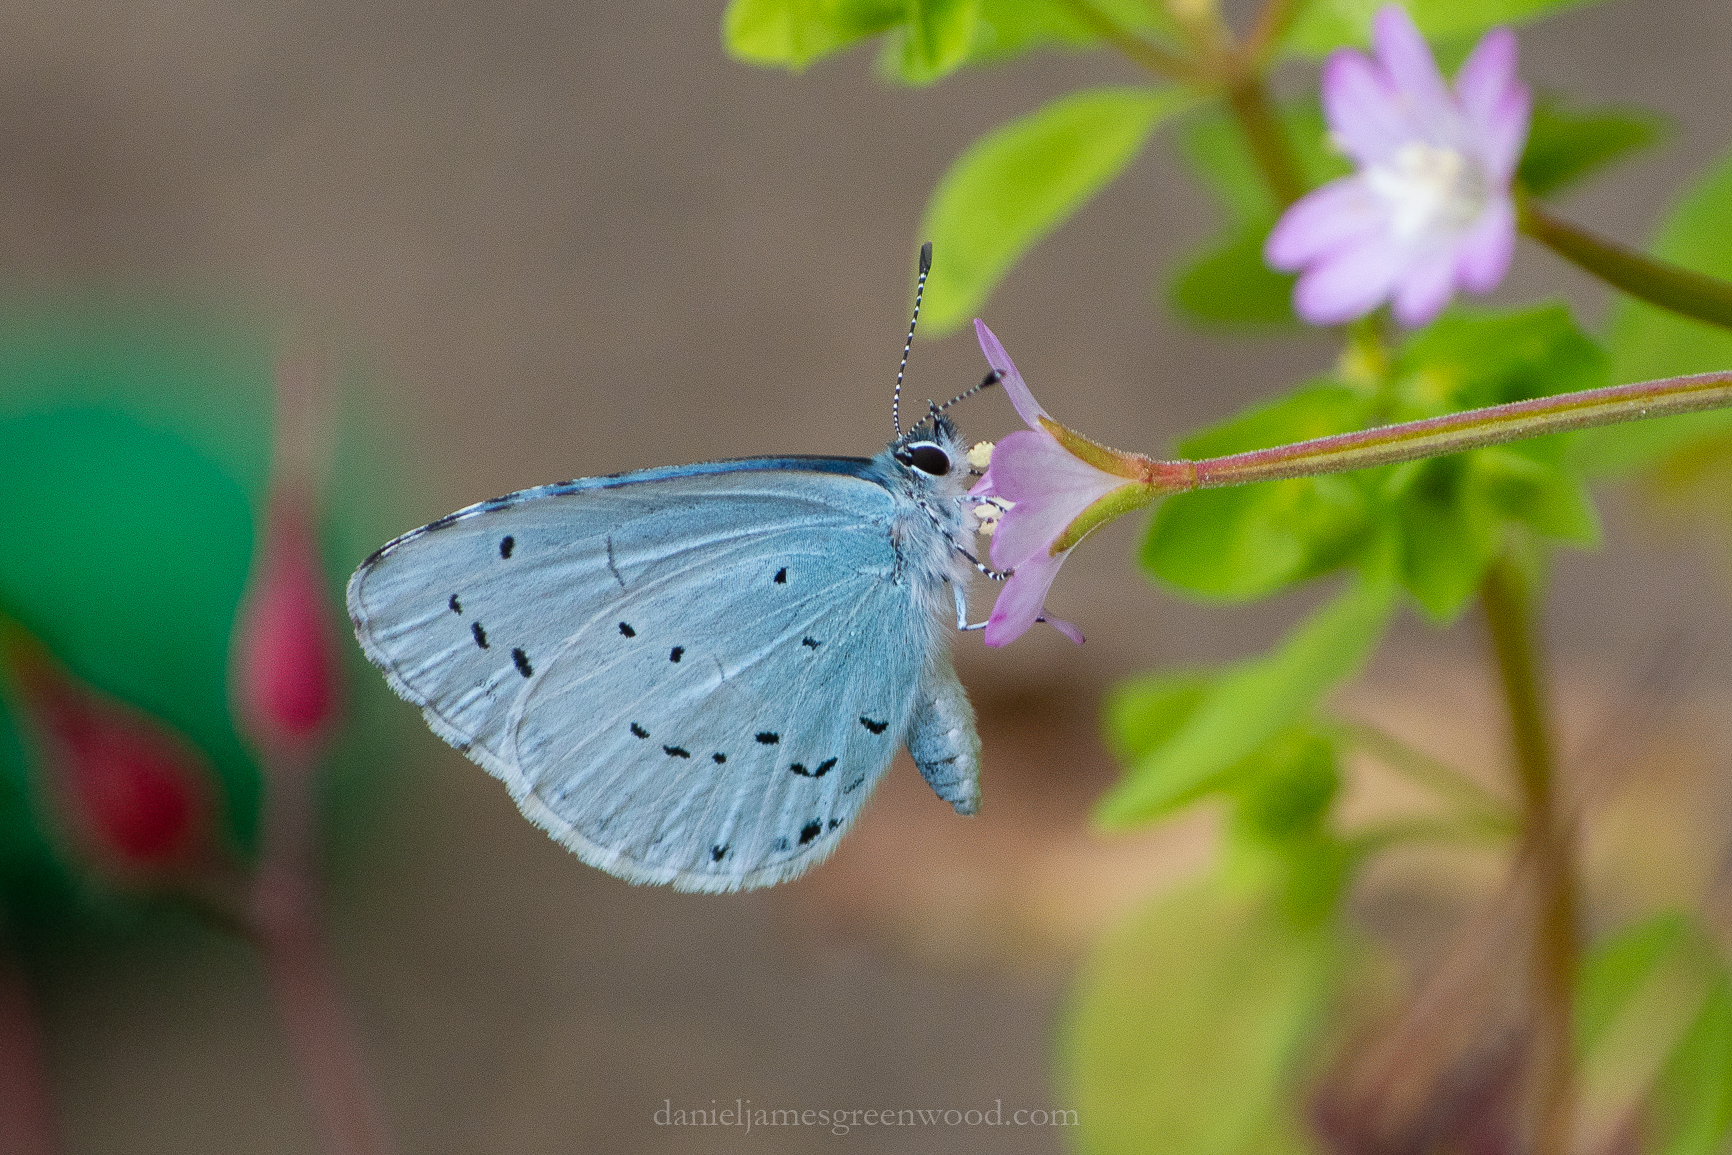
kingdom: Animalia
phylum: Arthropoda
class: Insecta
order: Lepidoptera
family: Lycaenidae
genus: Celastrina
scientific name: Celastrina argiolus
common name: Holly blue
